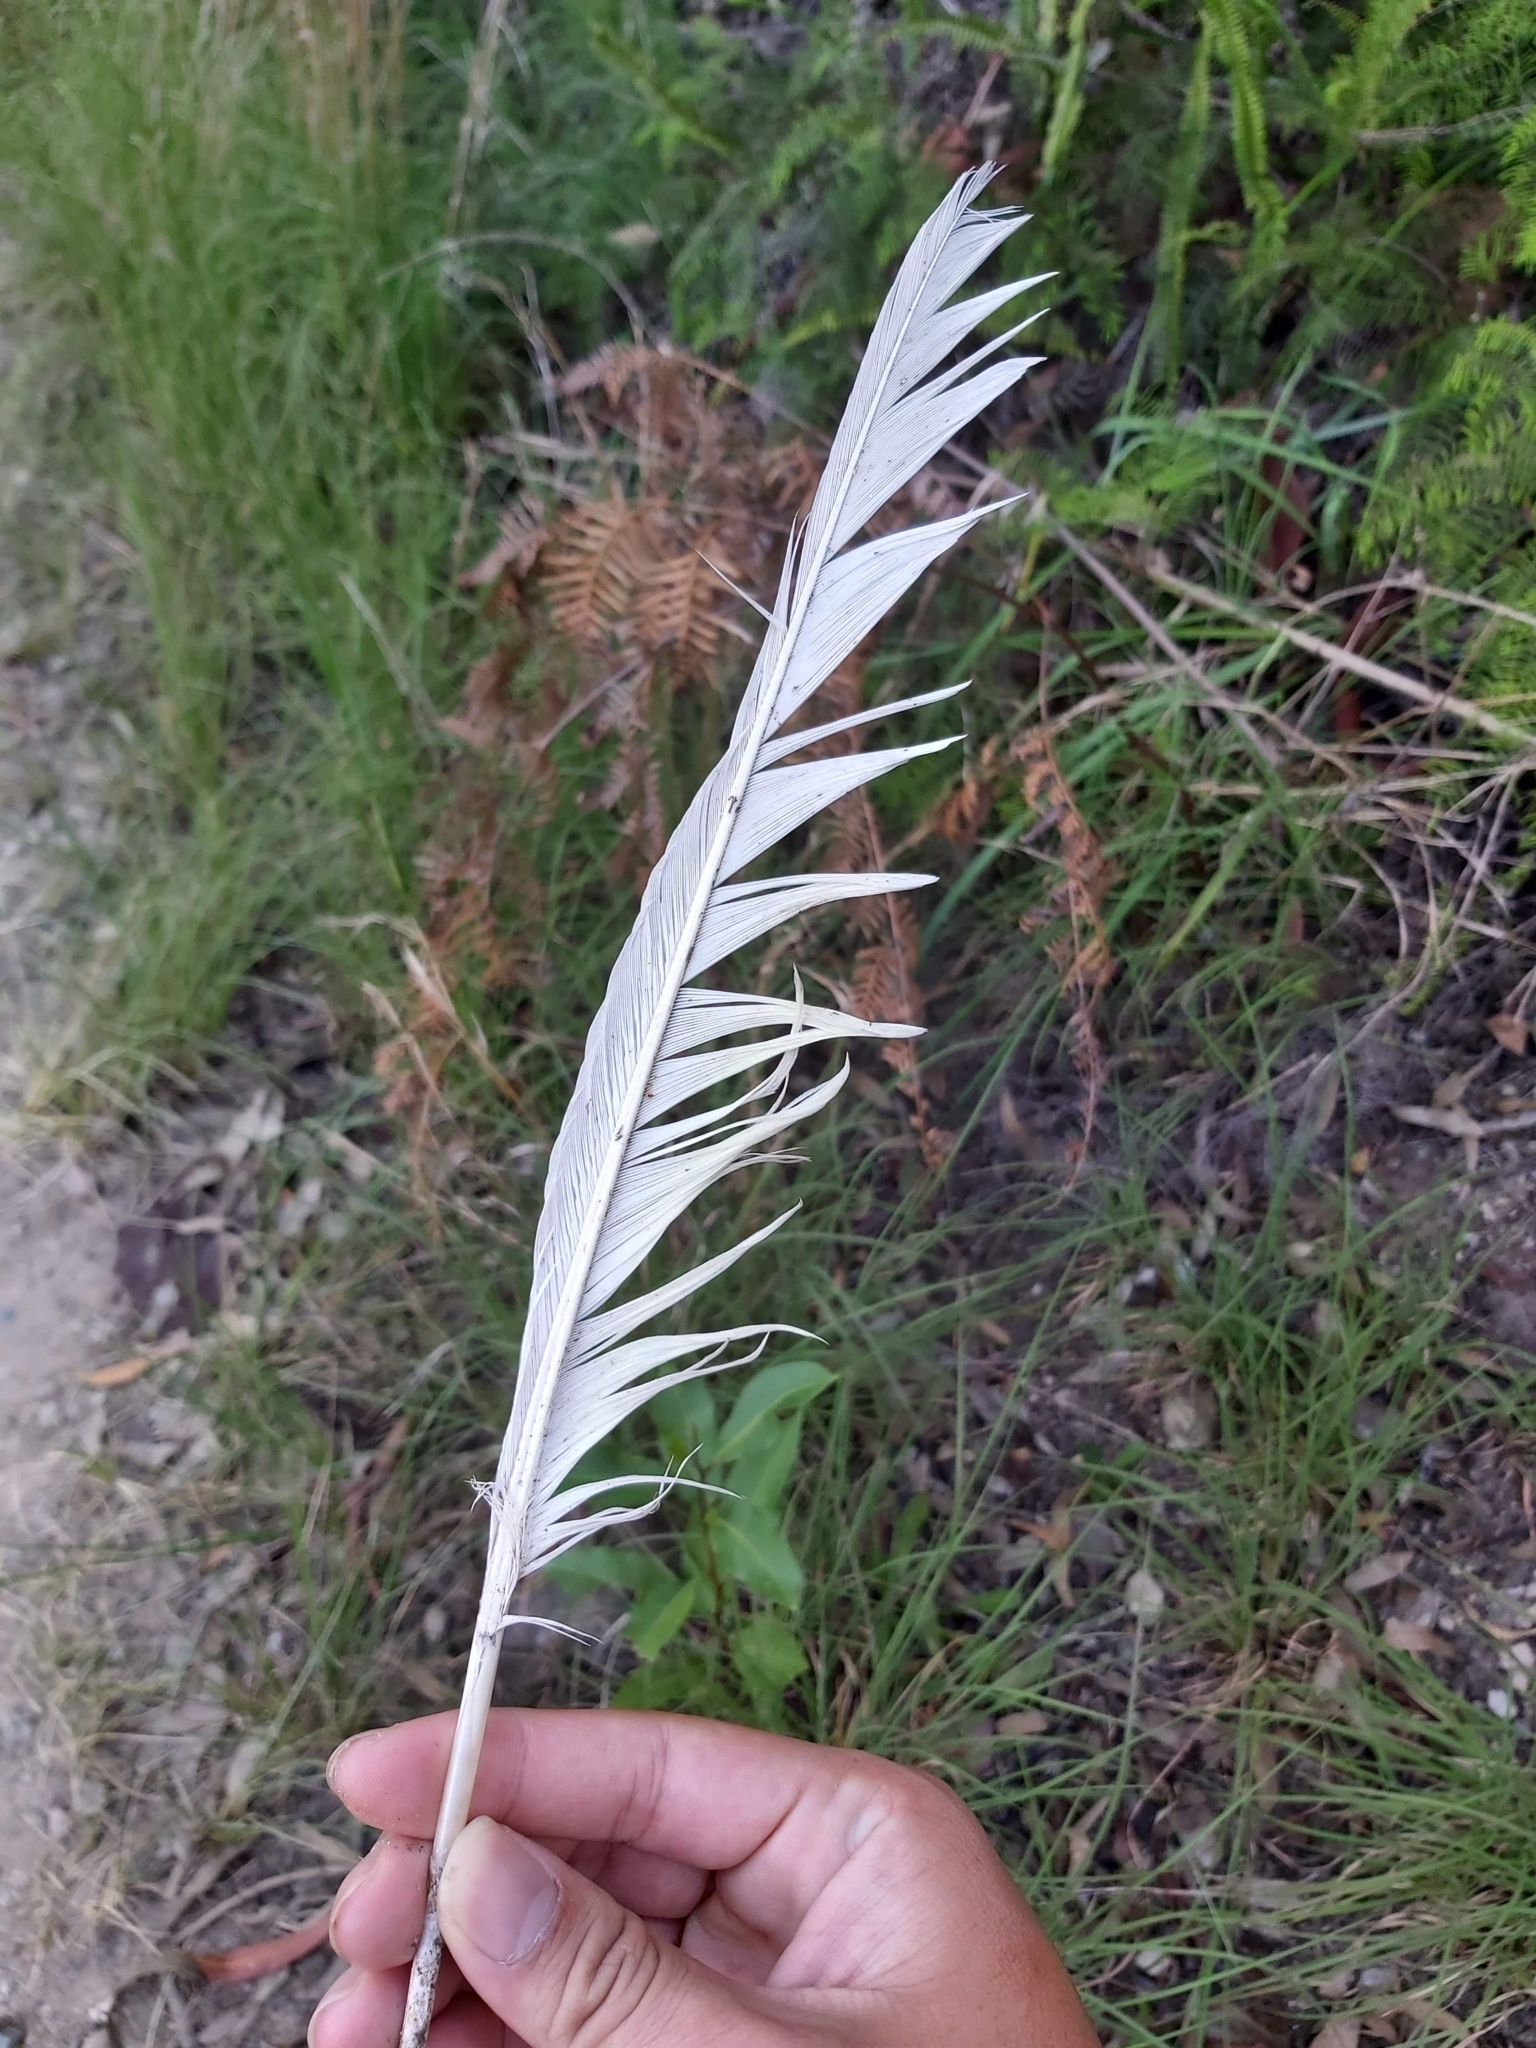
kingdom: Animalia
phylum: Chordata
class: Aves
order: Psittaciformes
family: Psittacidae
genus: Cacatua
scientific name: Cacatua galerita
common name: Sulphur-crested cockatoo
